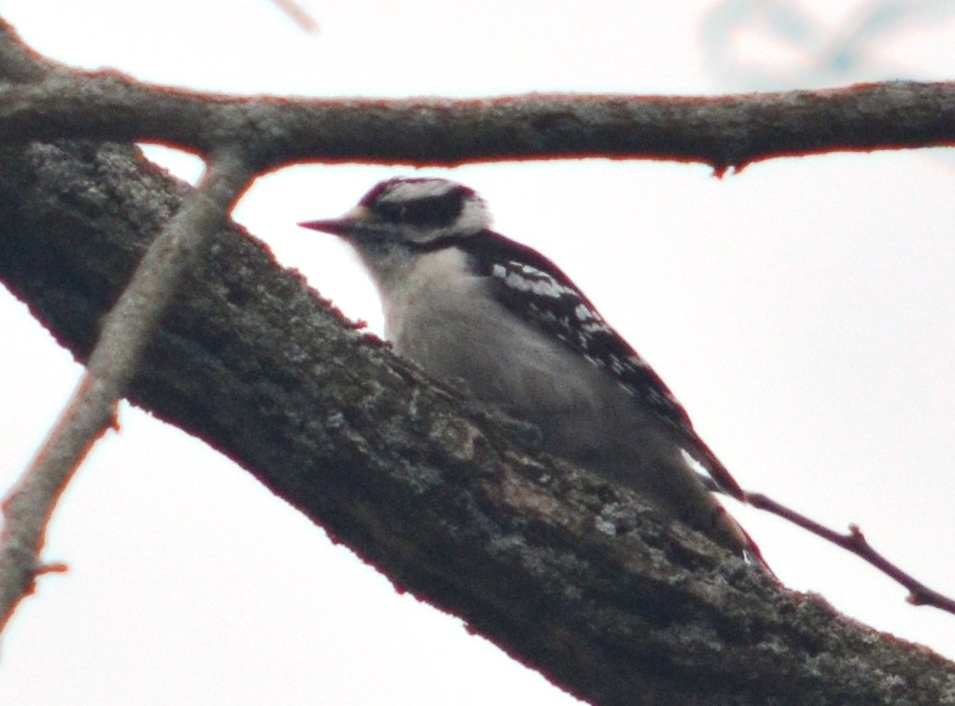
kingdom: Animalia
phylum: Chordata
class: Aves
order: Piciformes
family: Picidae
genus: Dryobates
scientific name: Dryobates pubescens
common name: Downy woodpecker
